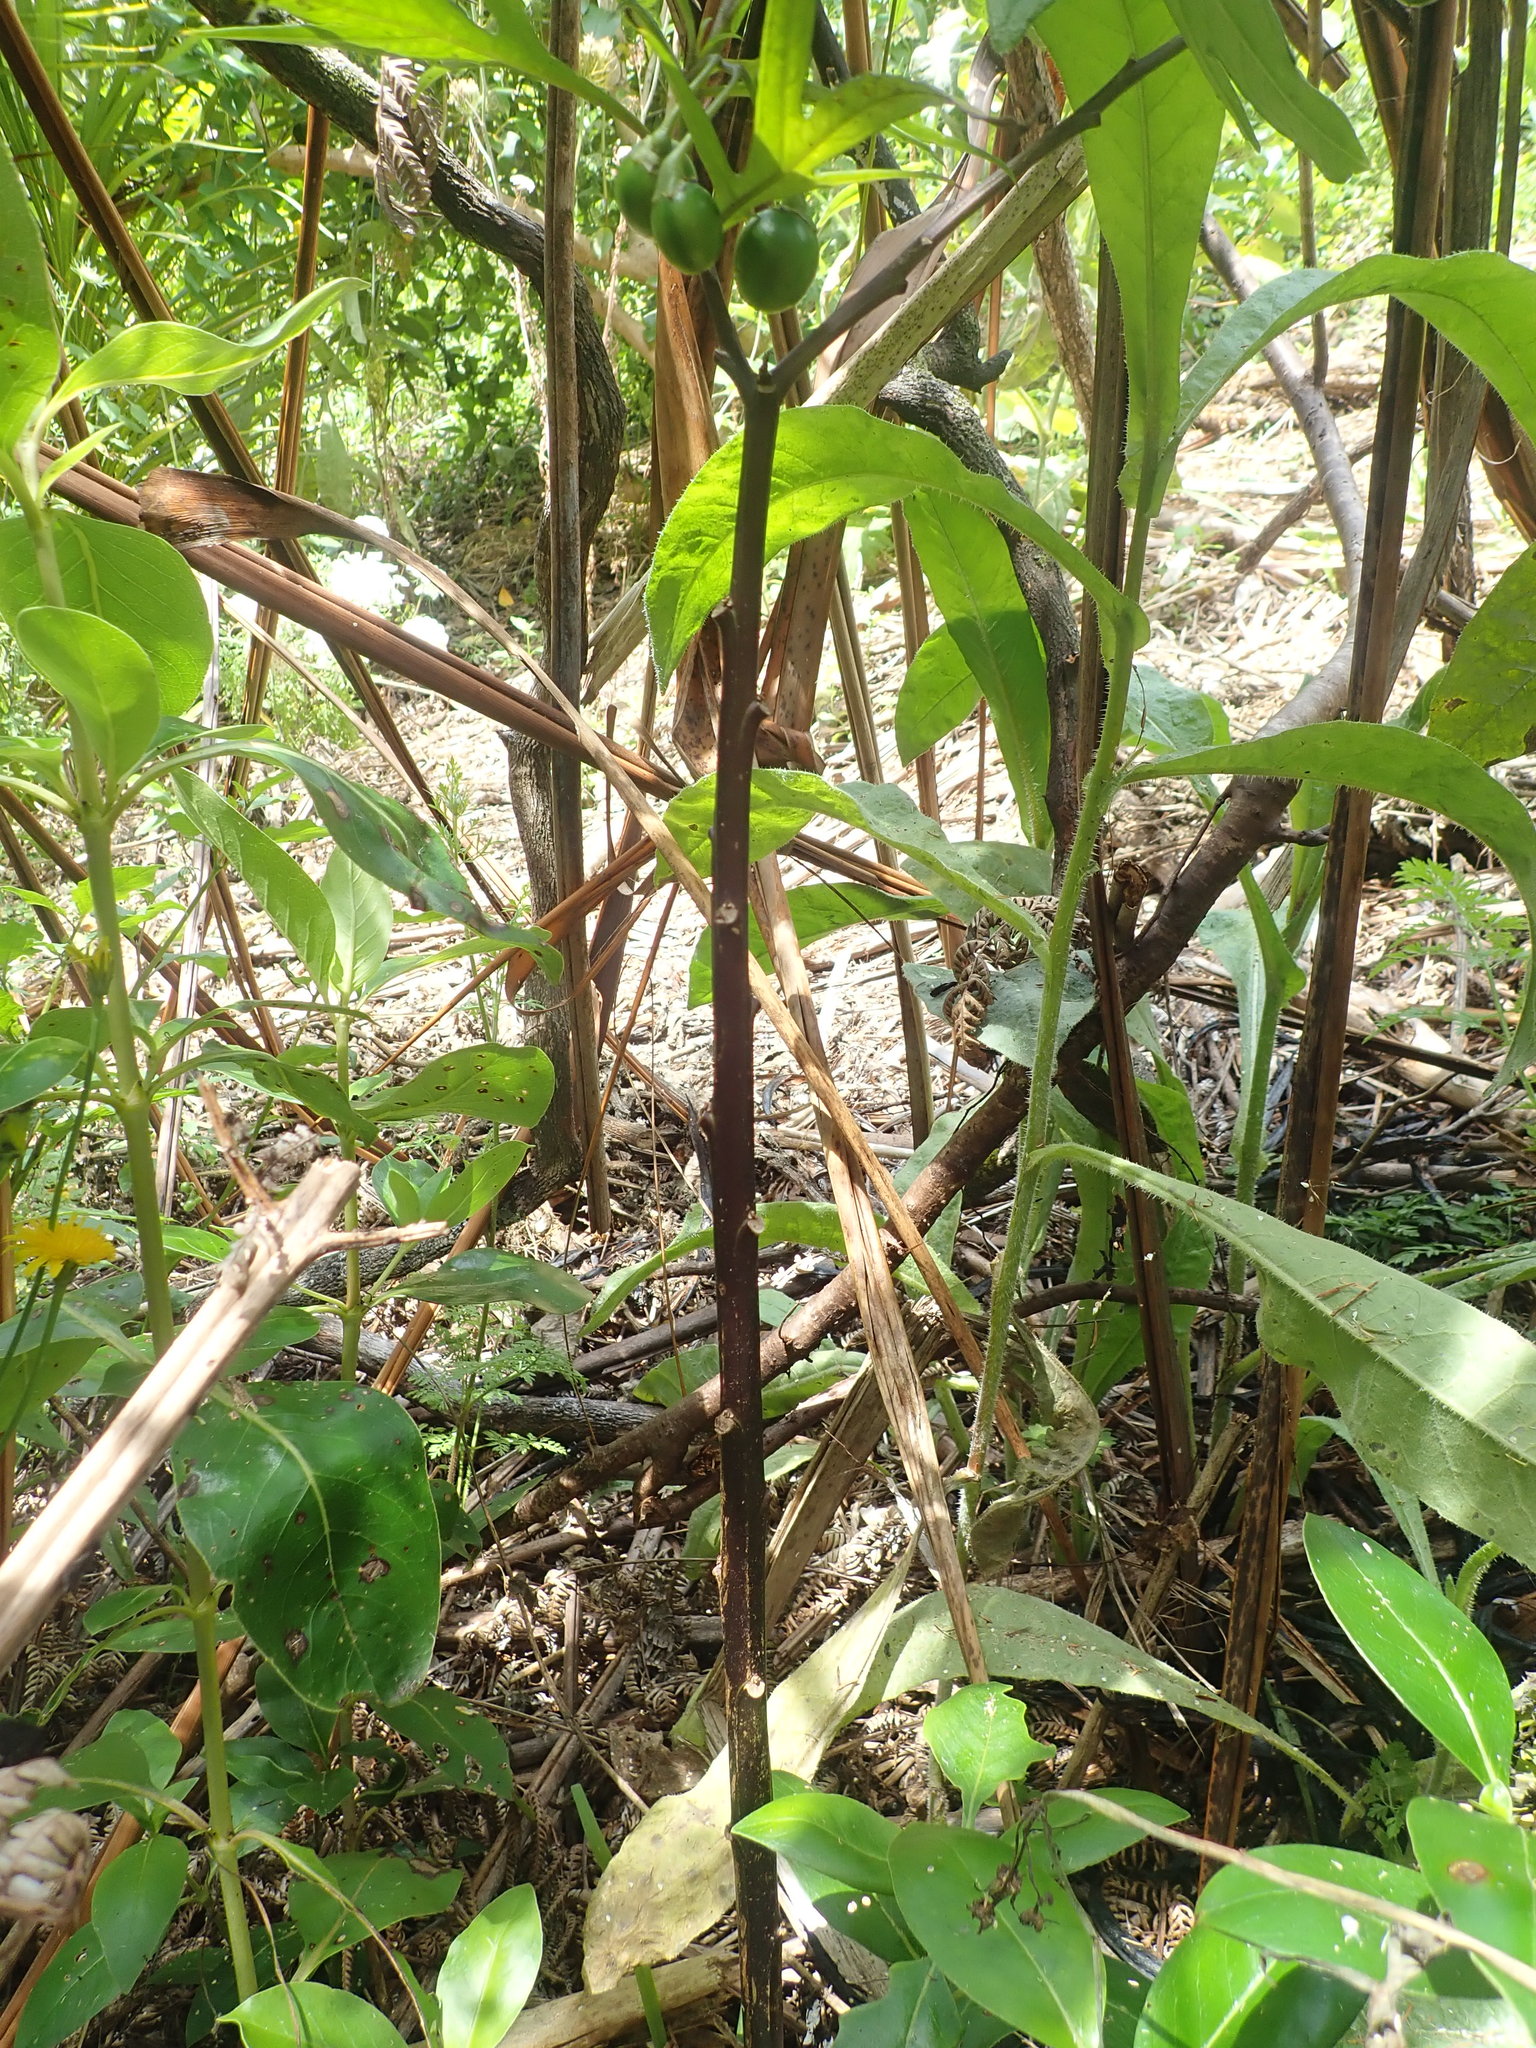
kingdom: Plantae
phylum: Tracheophyta
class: Magnoliopsida
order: Solanales
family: Solanaceae
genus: Solanum
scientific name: Solanum laciniatum
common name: Kangaroo-apple
